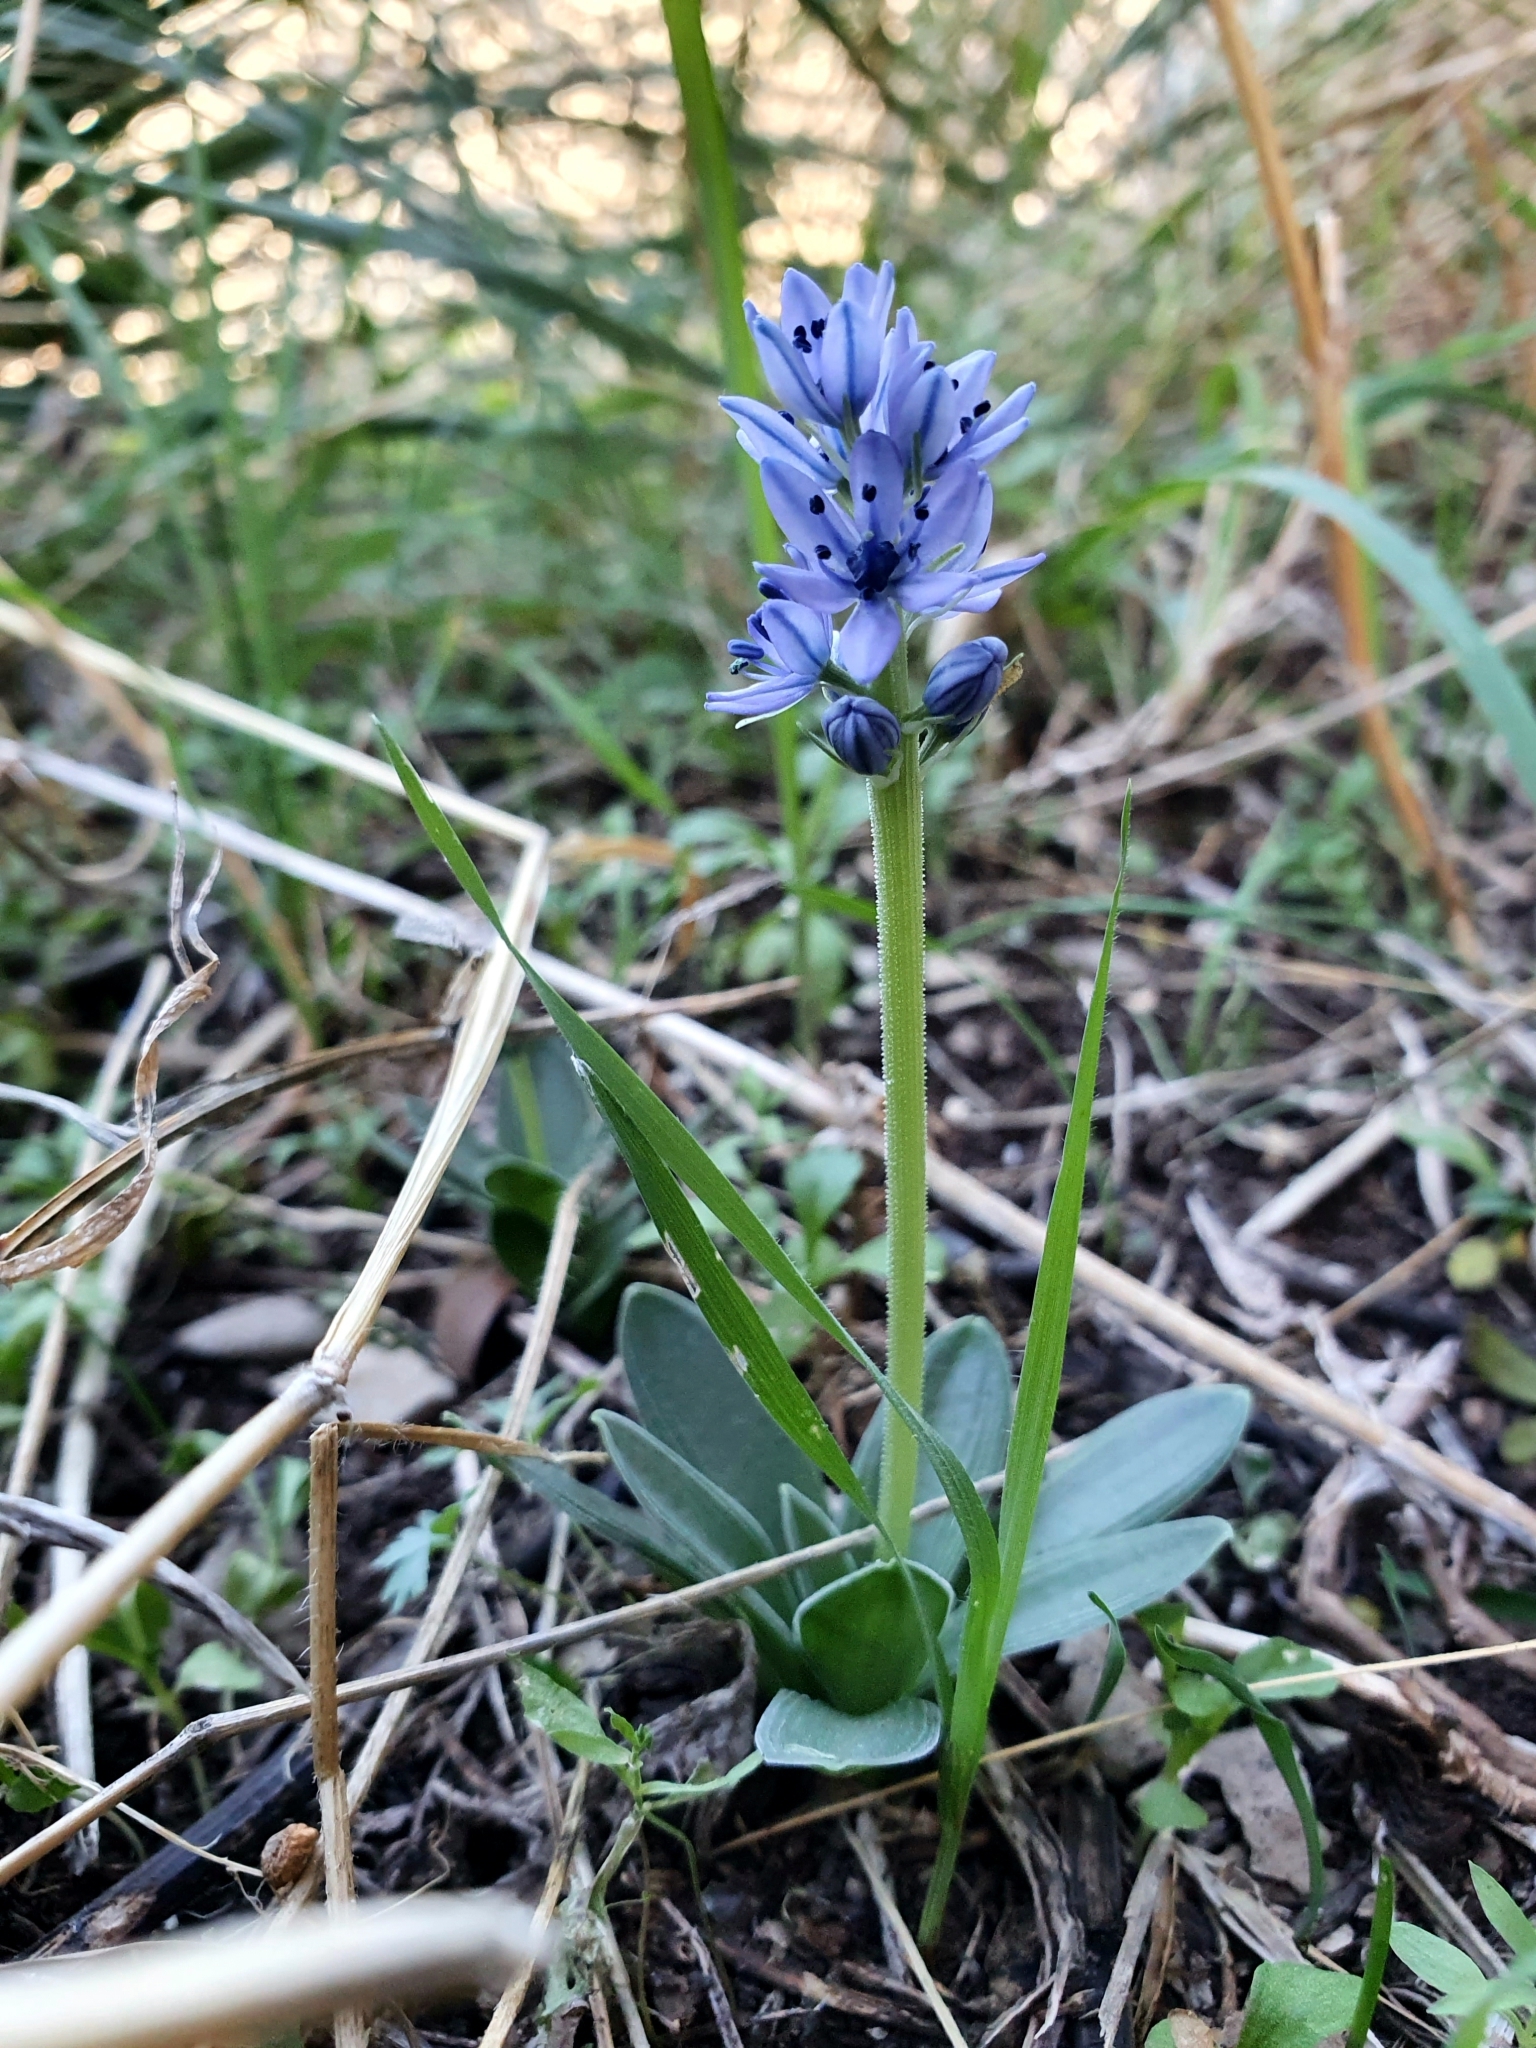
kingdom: Plantae
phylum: Tracheophyta
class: Liliopsida
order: Asparagales
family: Asparagaceae
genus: Hyacinthoides
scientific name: Hyacinthoides lingulata
